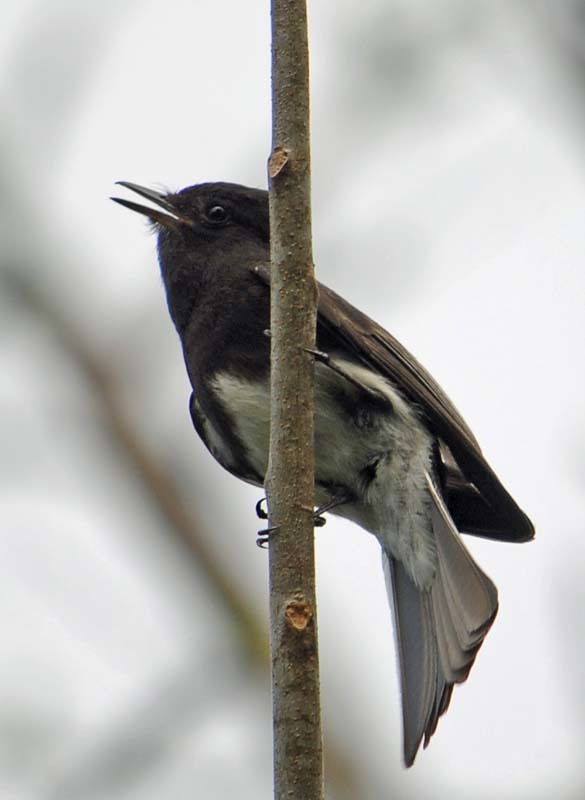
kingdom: Animalia
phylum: Chordata
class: Aves
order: Passeriformes
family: Tyrannidae
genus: Sayornis
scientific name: Sayornis nigricans
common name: Black phoebe
